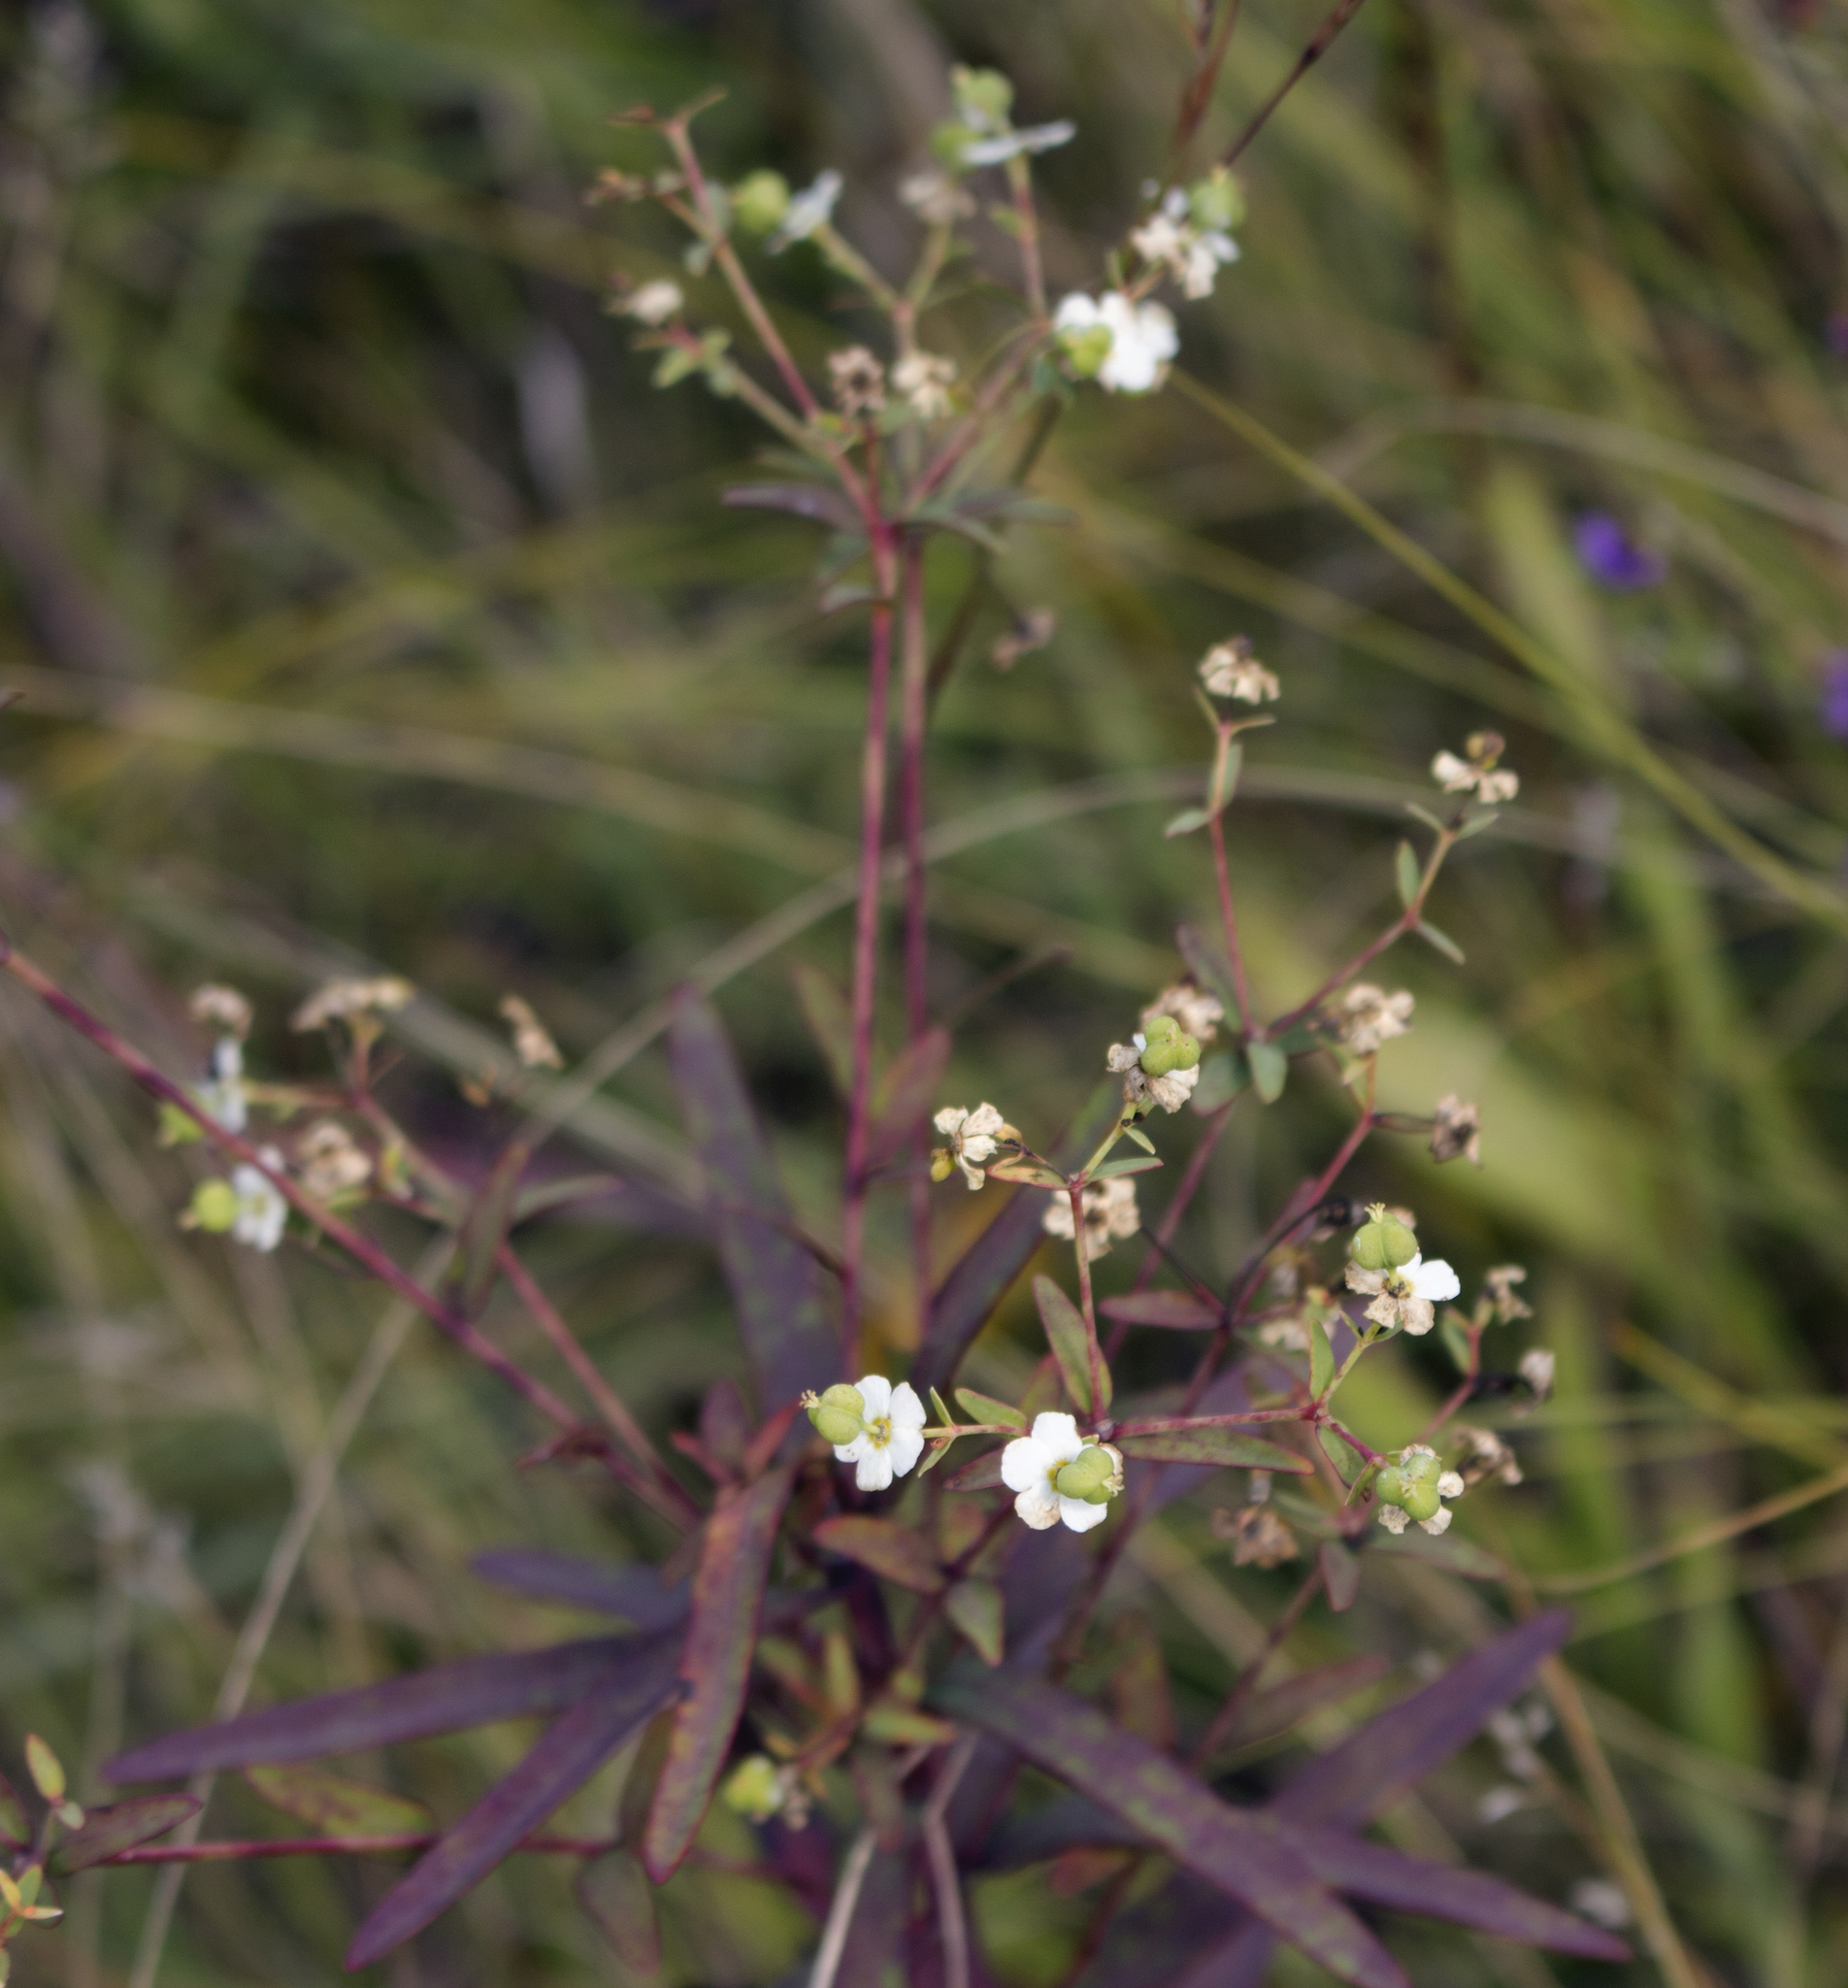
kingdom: Plantae
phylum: Tracheophyta
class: Magnoliopsida
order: Malpighiales
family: Euphorbiaceae
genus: Euphorbia
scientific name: Euphorbia corollata
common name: Flowering spurge
